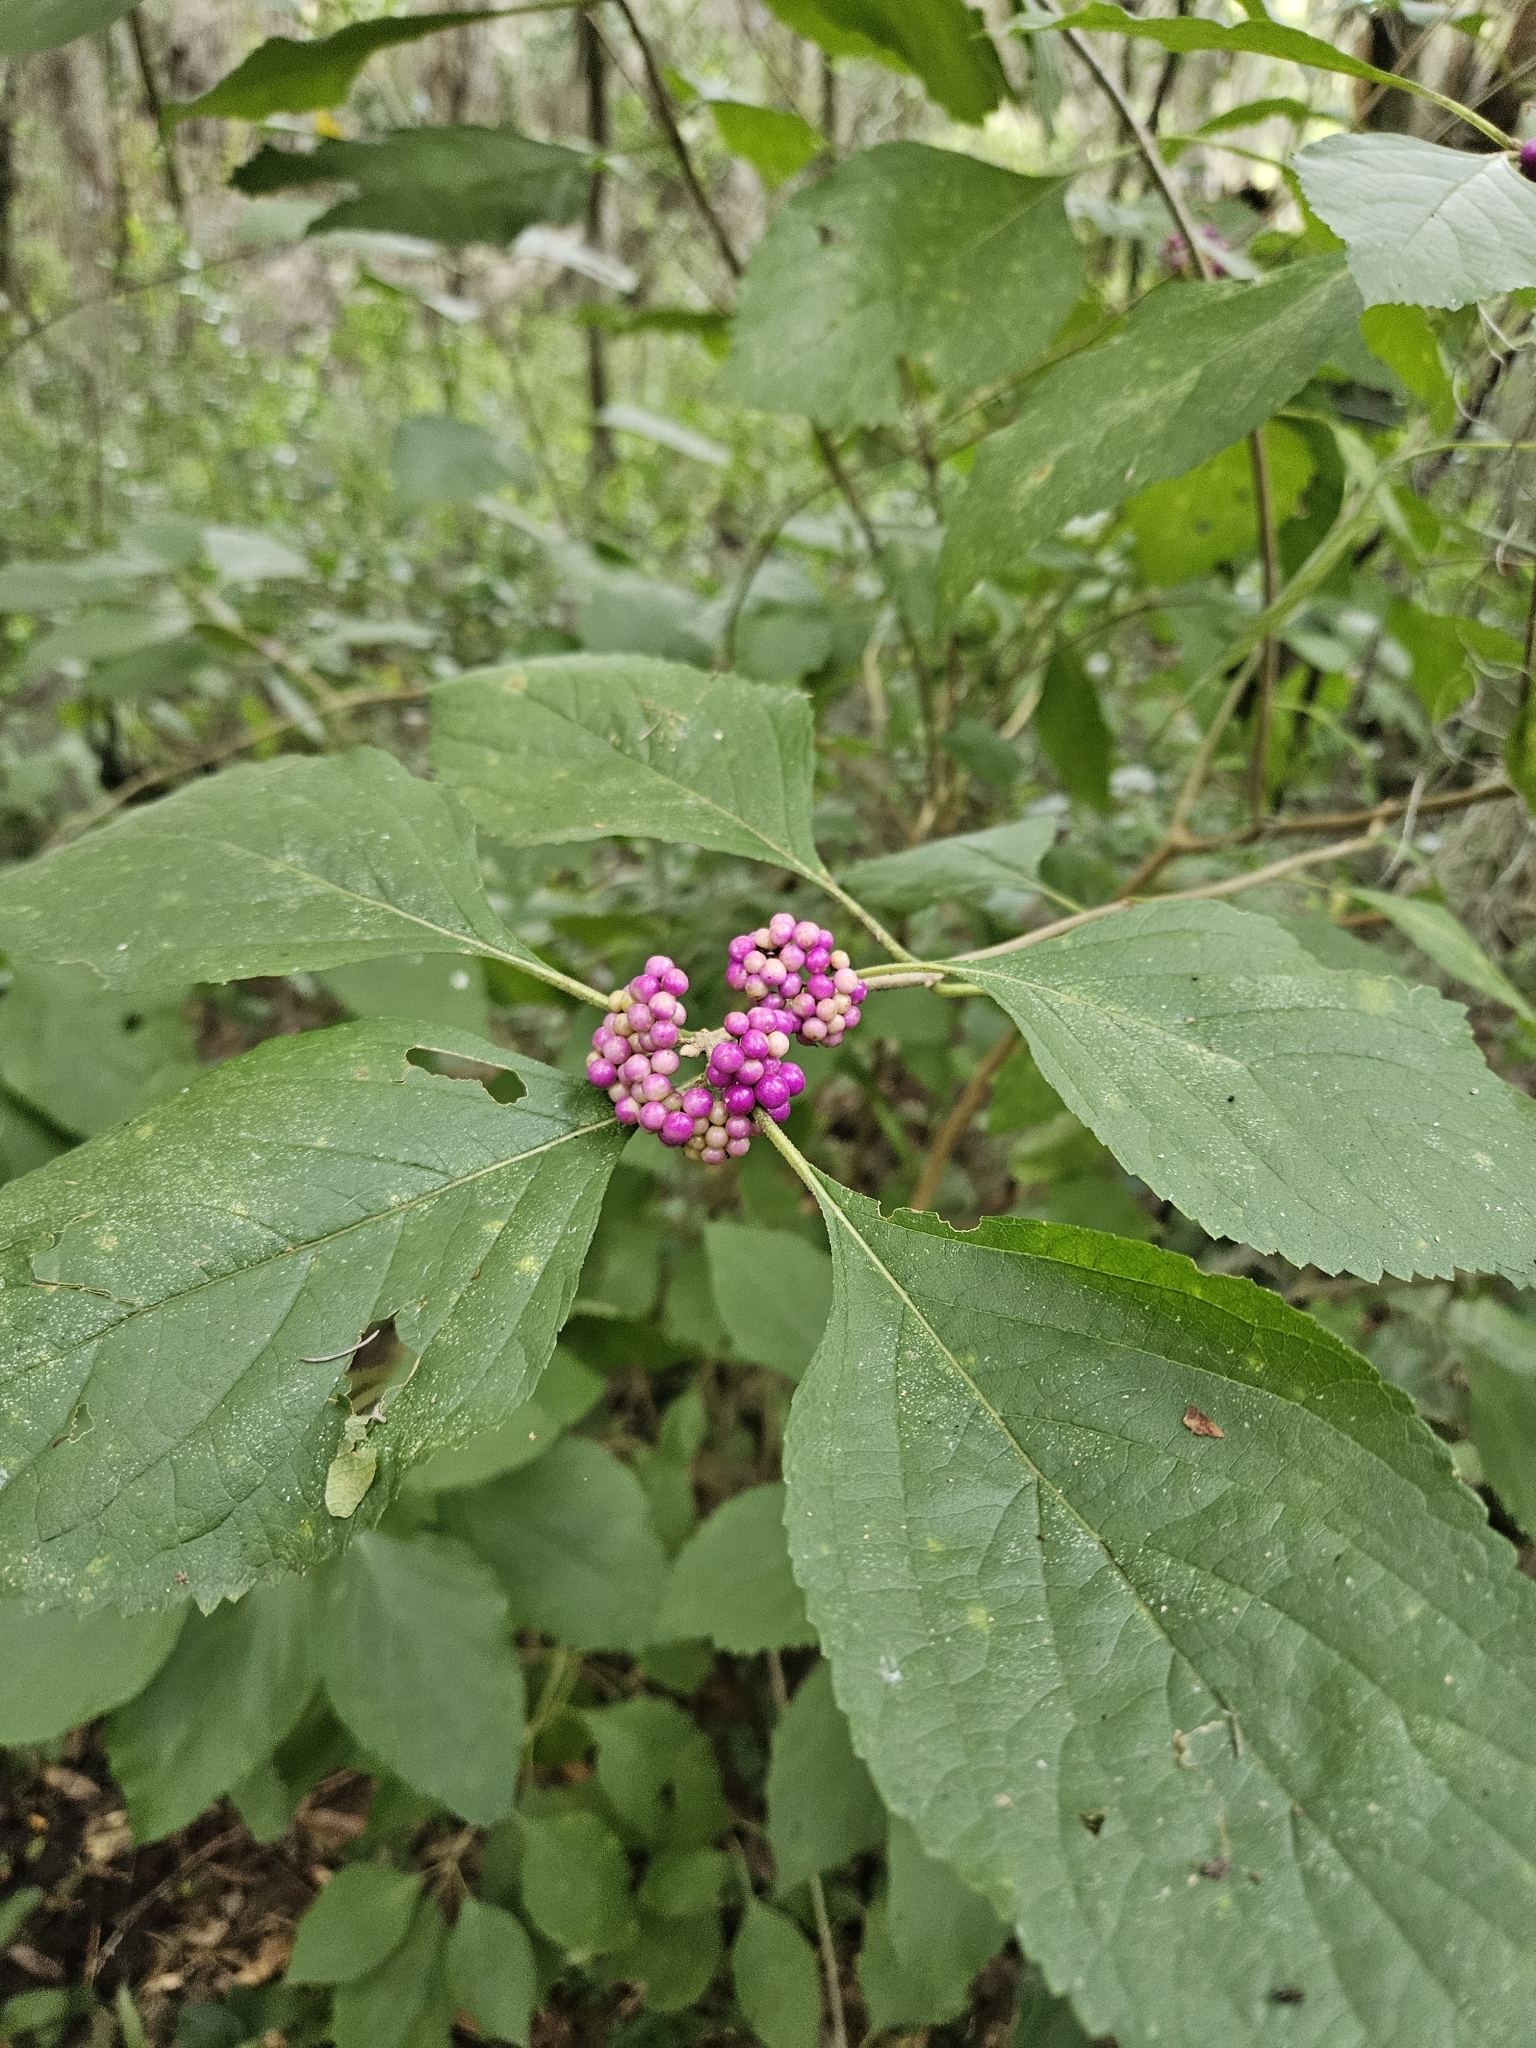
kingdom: Plantae
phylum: Tracheophyta
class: Magnoliopsida
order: Lamiales
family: Lamiaceae
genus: Callicarpa
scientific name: Callicarpa americana
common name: American beautyberry
